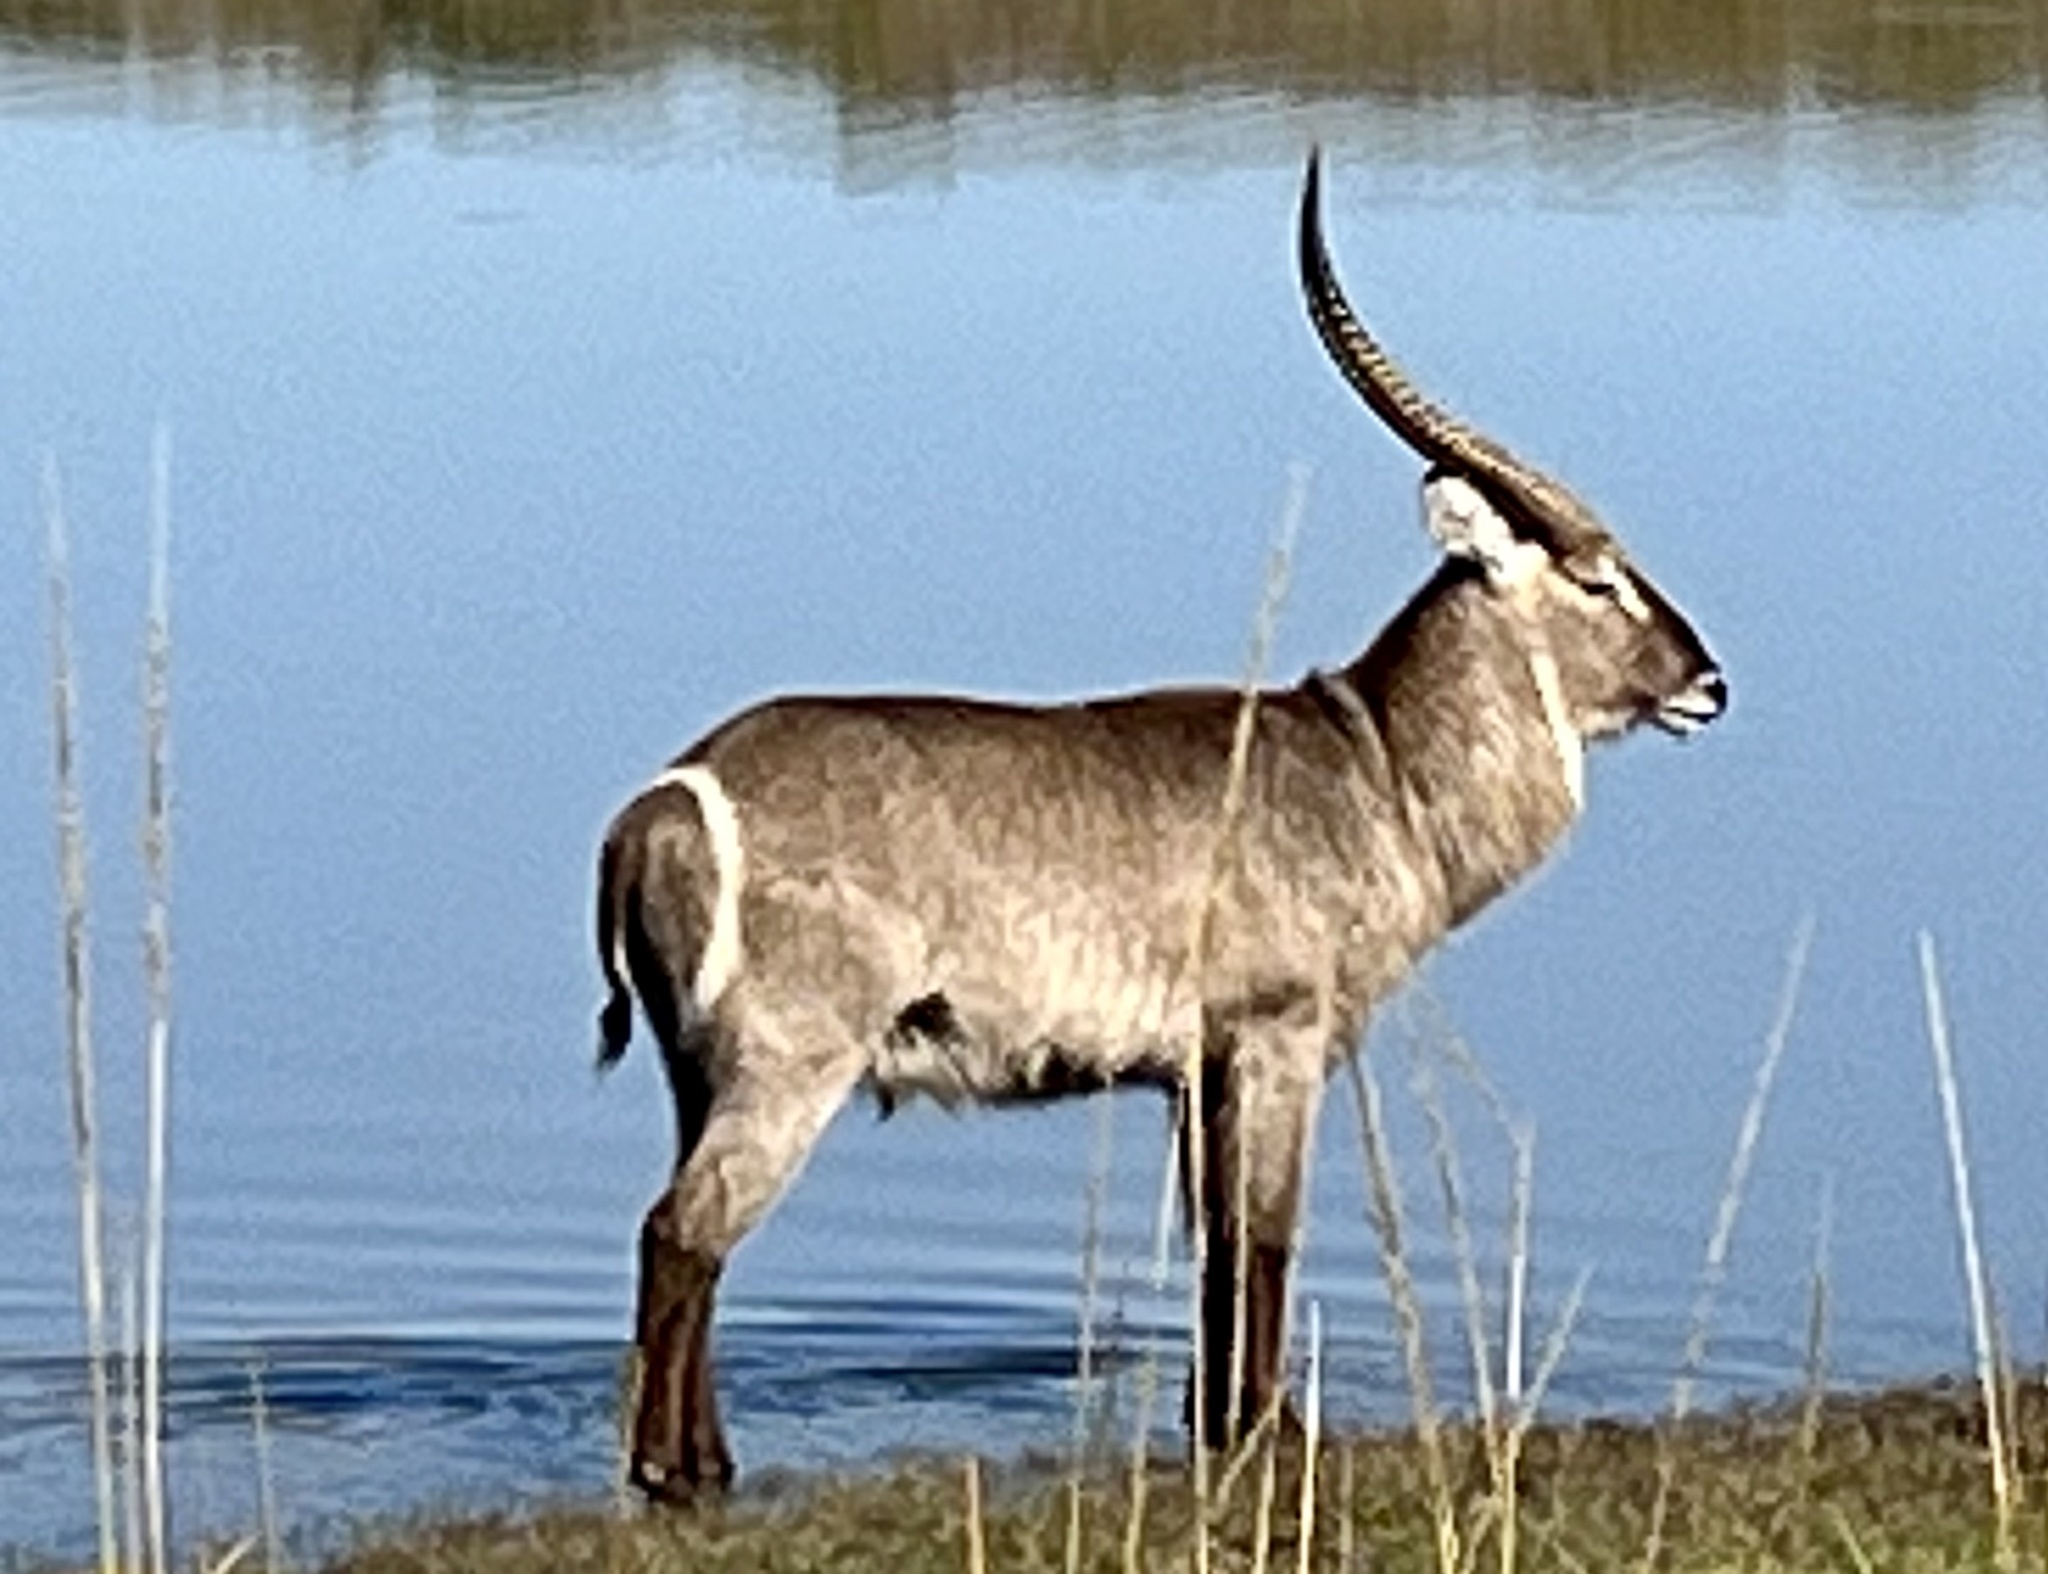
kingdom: Animalia
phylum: Chordata
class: Mammalia
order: Artiodactyla
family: Bovidae
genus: Kobus
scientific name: Kobus ellipsiprymnus
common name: Waterbuck
